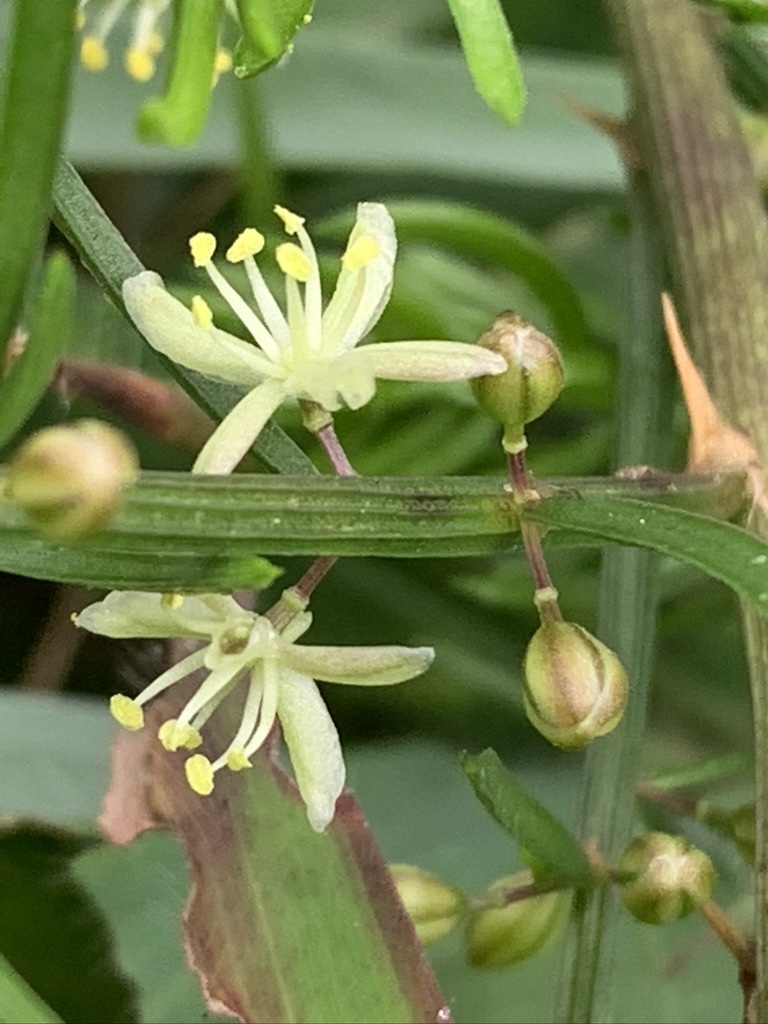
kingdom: Plantae
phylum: Tracheophyta
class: Liliopsida
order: Asparagales
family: Asparagaceae
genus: Asparagus
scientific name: Asparagus cochinchinensis
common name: Chinese asparagus
